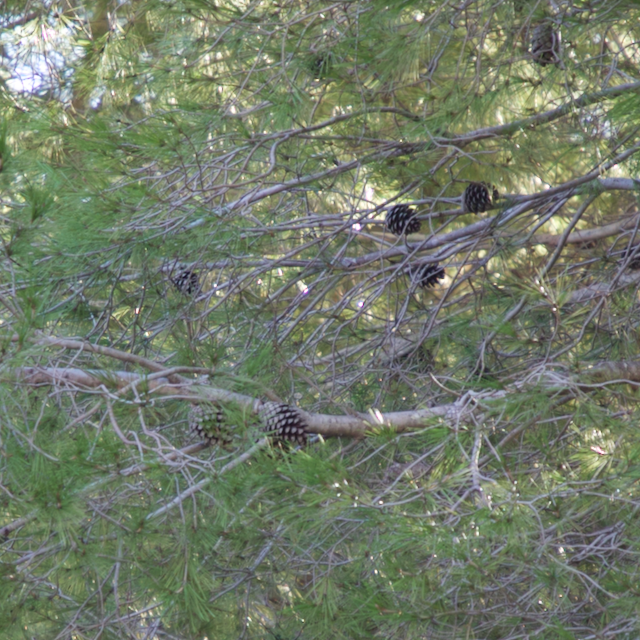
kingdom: Plantae
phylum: Tracheophyta
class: Pinopsida
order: Pinales
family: Pinaceae
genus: Pinus
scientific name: Pinus halepensis
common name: Aleppo pine
